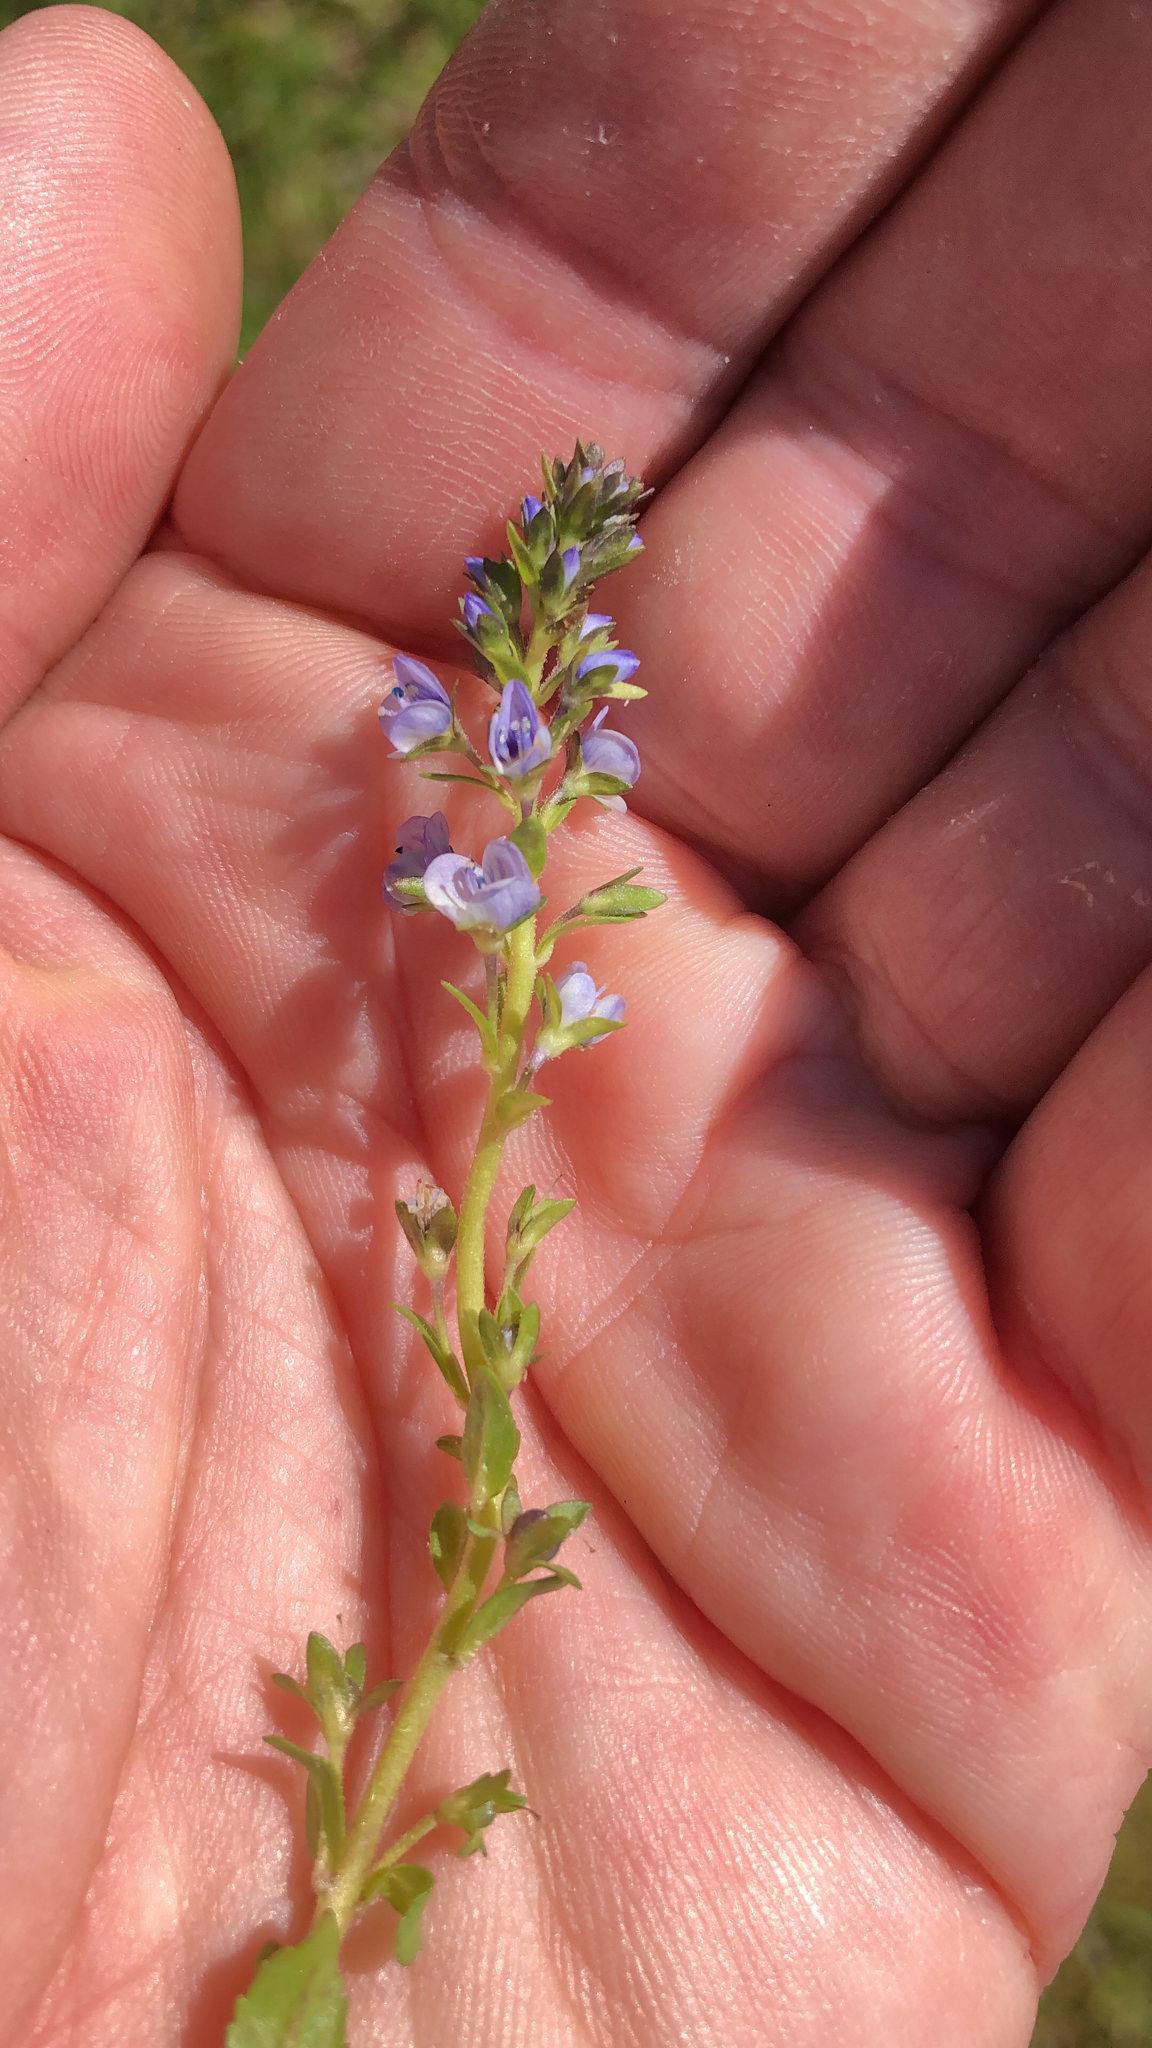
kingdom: Plantae
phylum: Tracheophyta
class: Magnoliopsida
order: Lamiales
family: Plantaginaceae
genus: Veronica
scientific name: Veronica serpyllifolia
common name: Thyme-leaved speedwell
